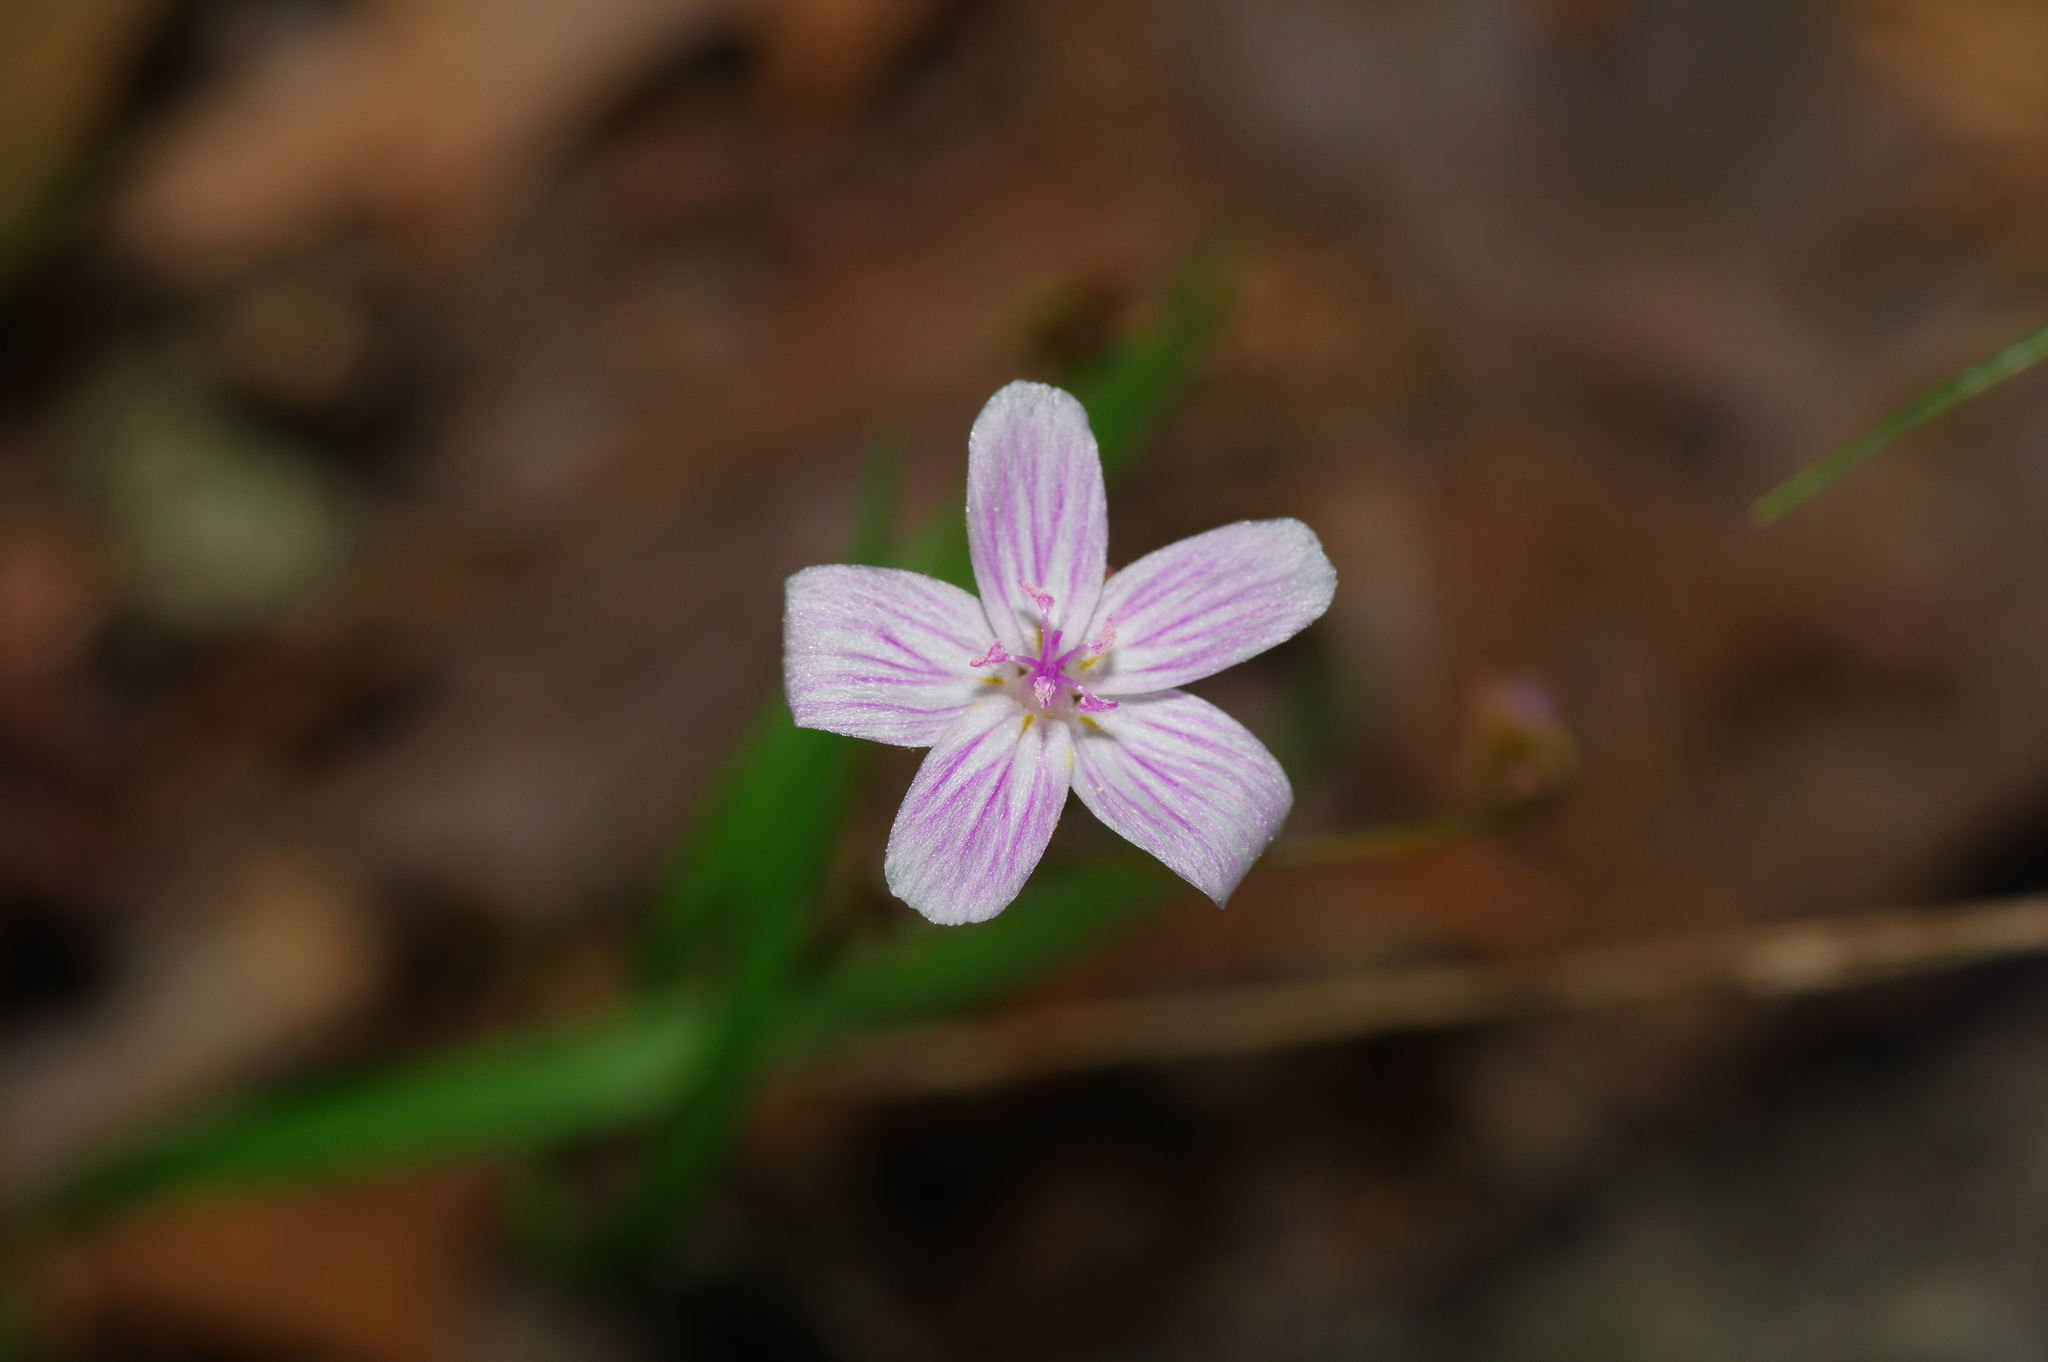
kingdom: Plantae
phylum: Tracheophyta
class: Magnoliopsida
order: Caryophyllales
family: Montiaceae
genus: Claytonia
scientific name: Claytonia virginica
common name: Virginia springbeauty
